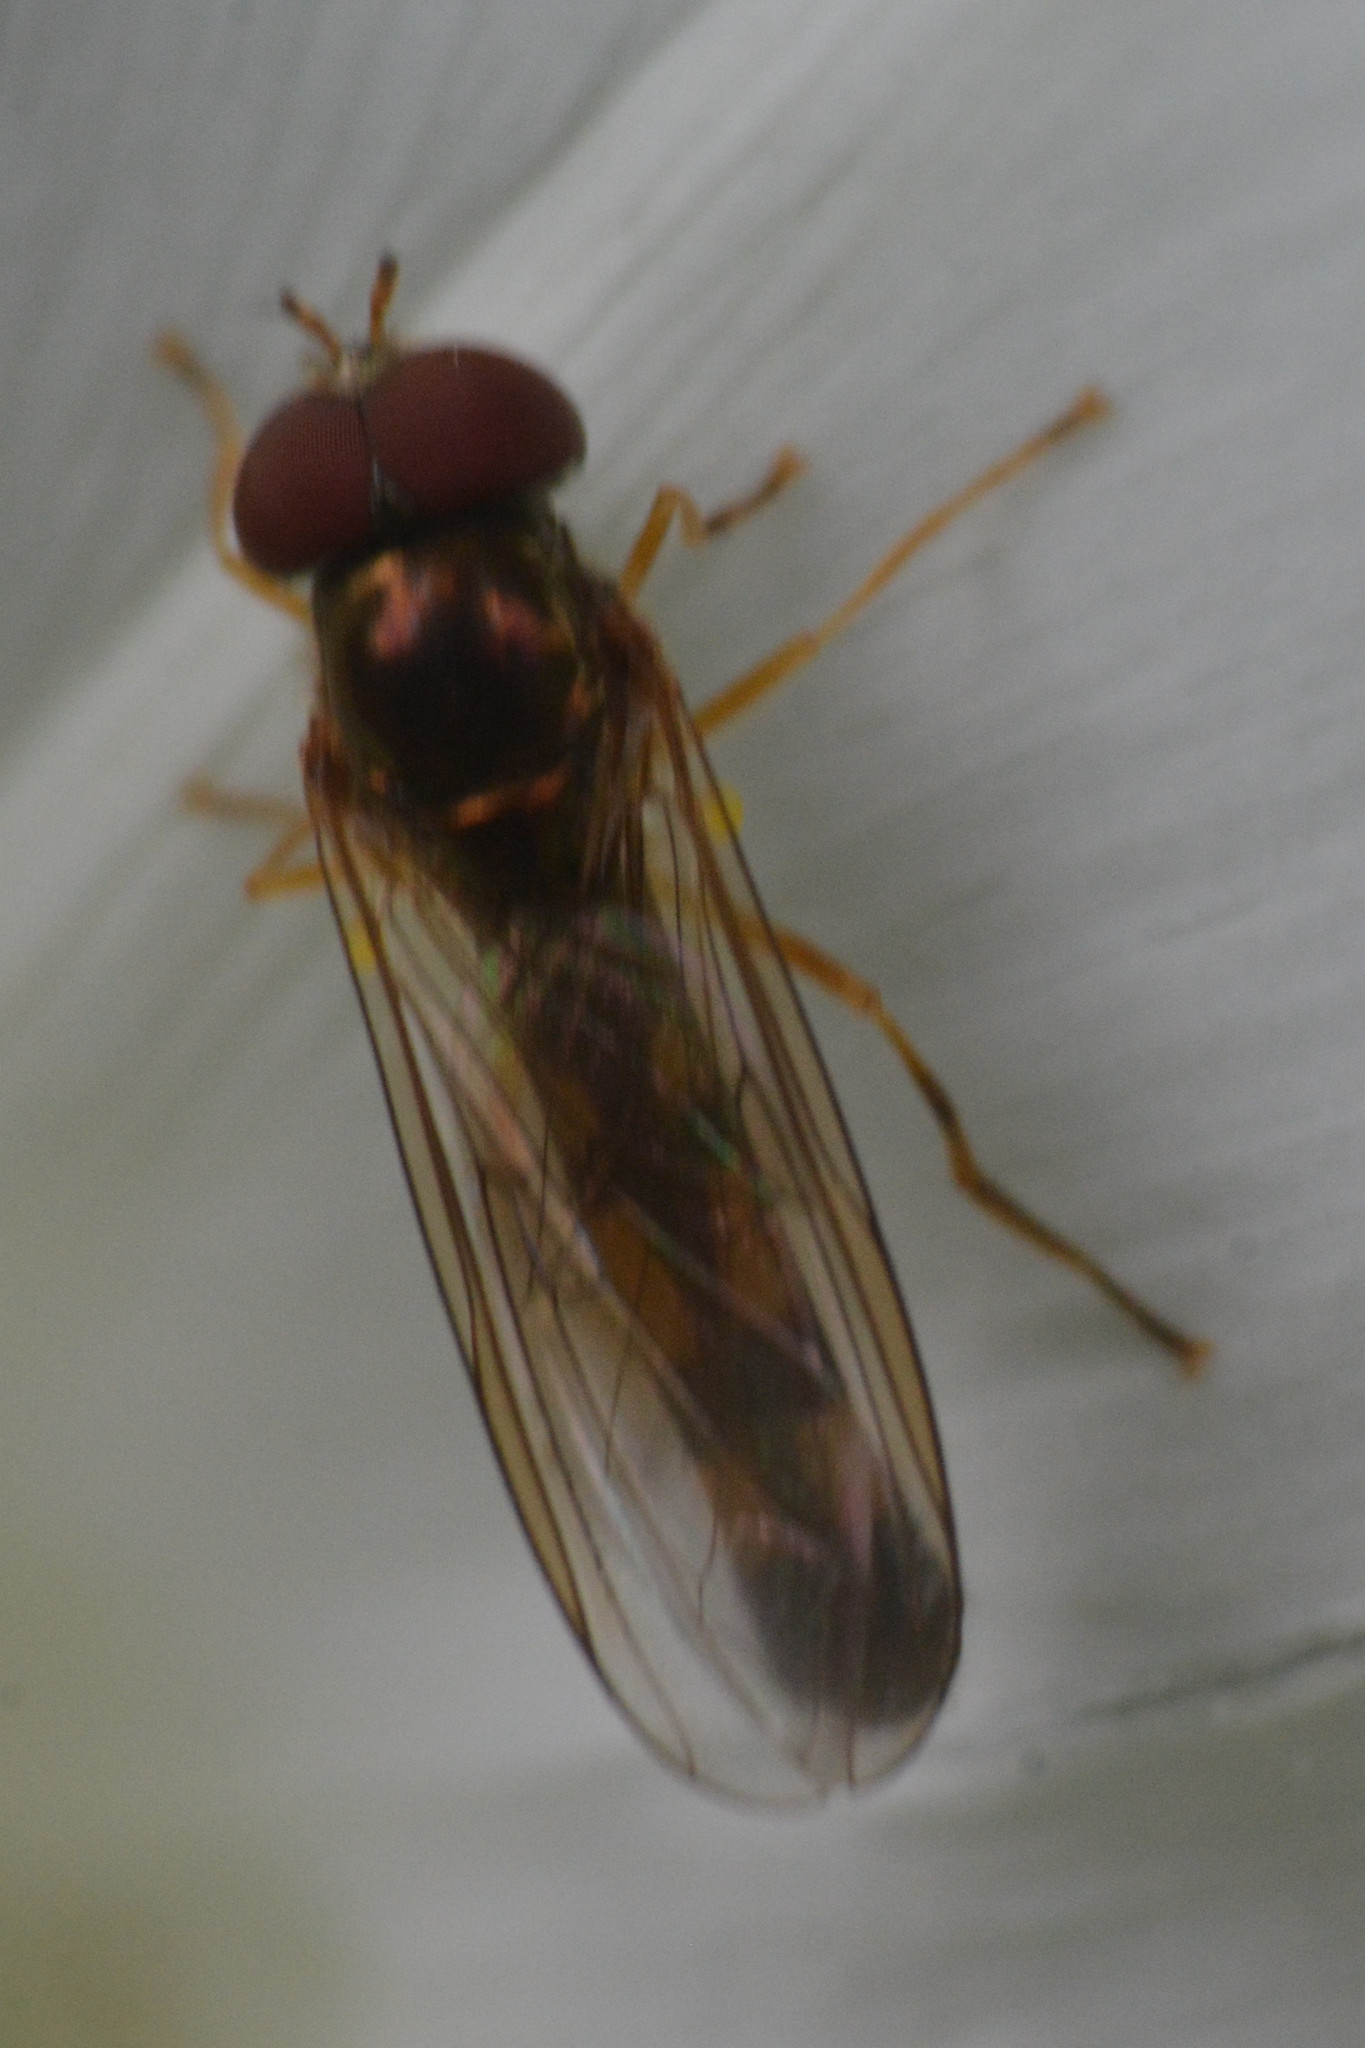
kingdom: Animalia
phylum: Arthropoda
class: Insecta
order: Diptera
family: Syrphidae
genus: Melanostoma
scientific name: Melanostoma scalare
